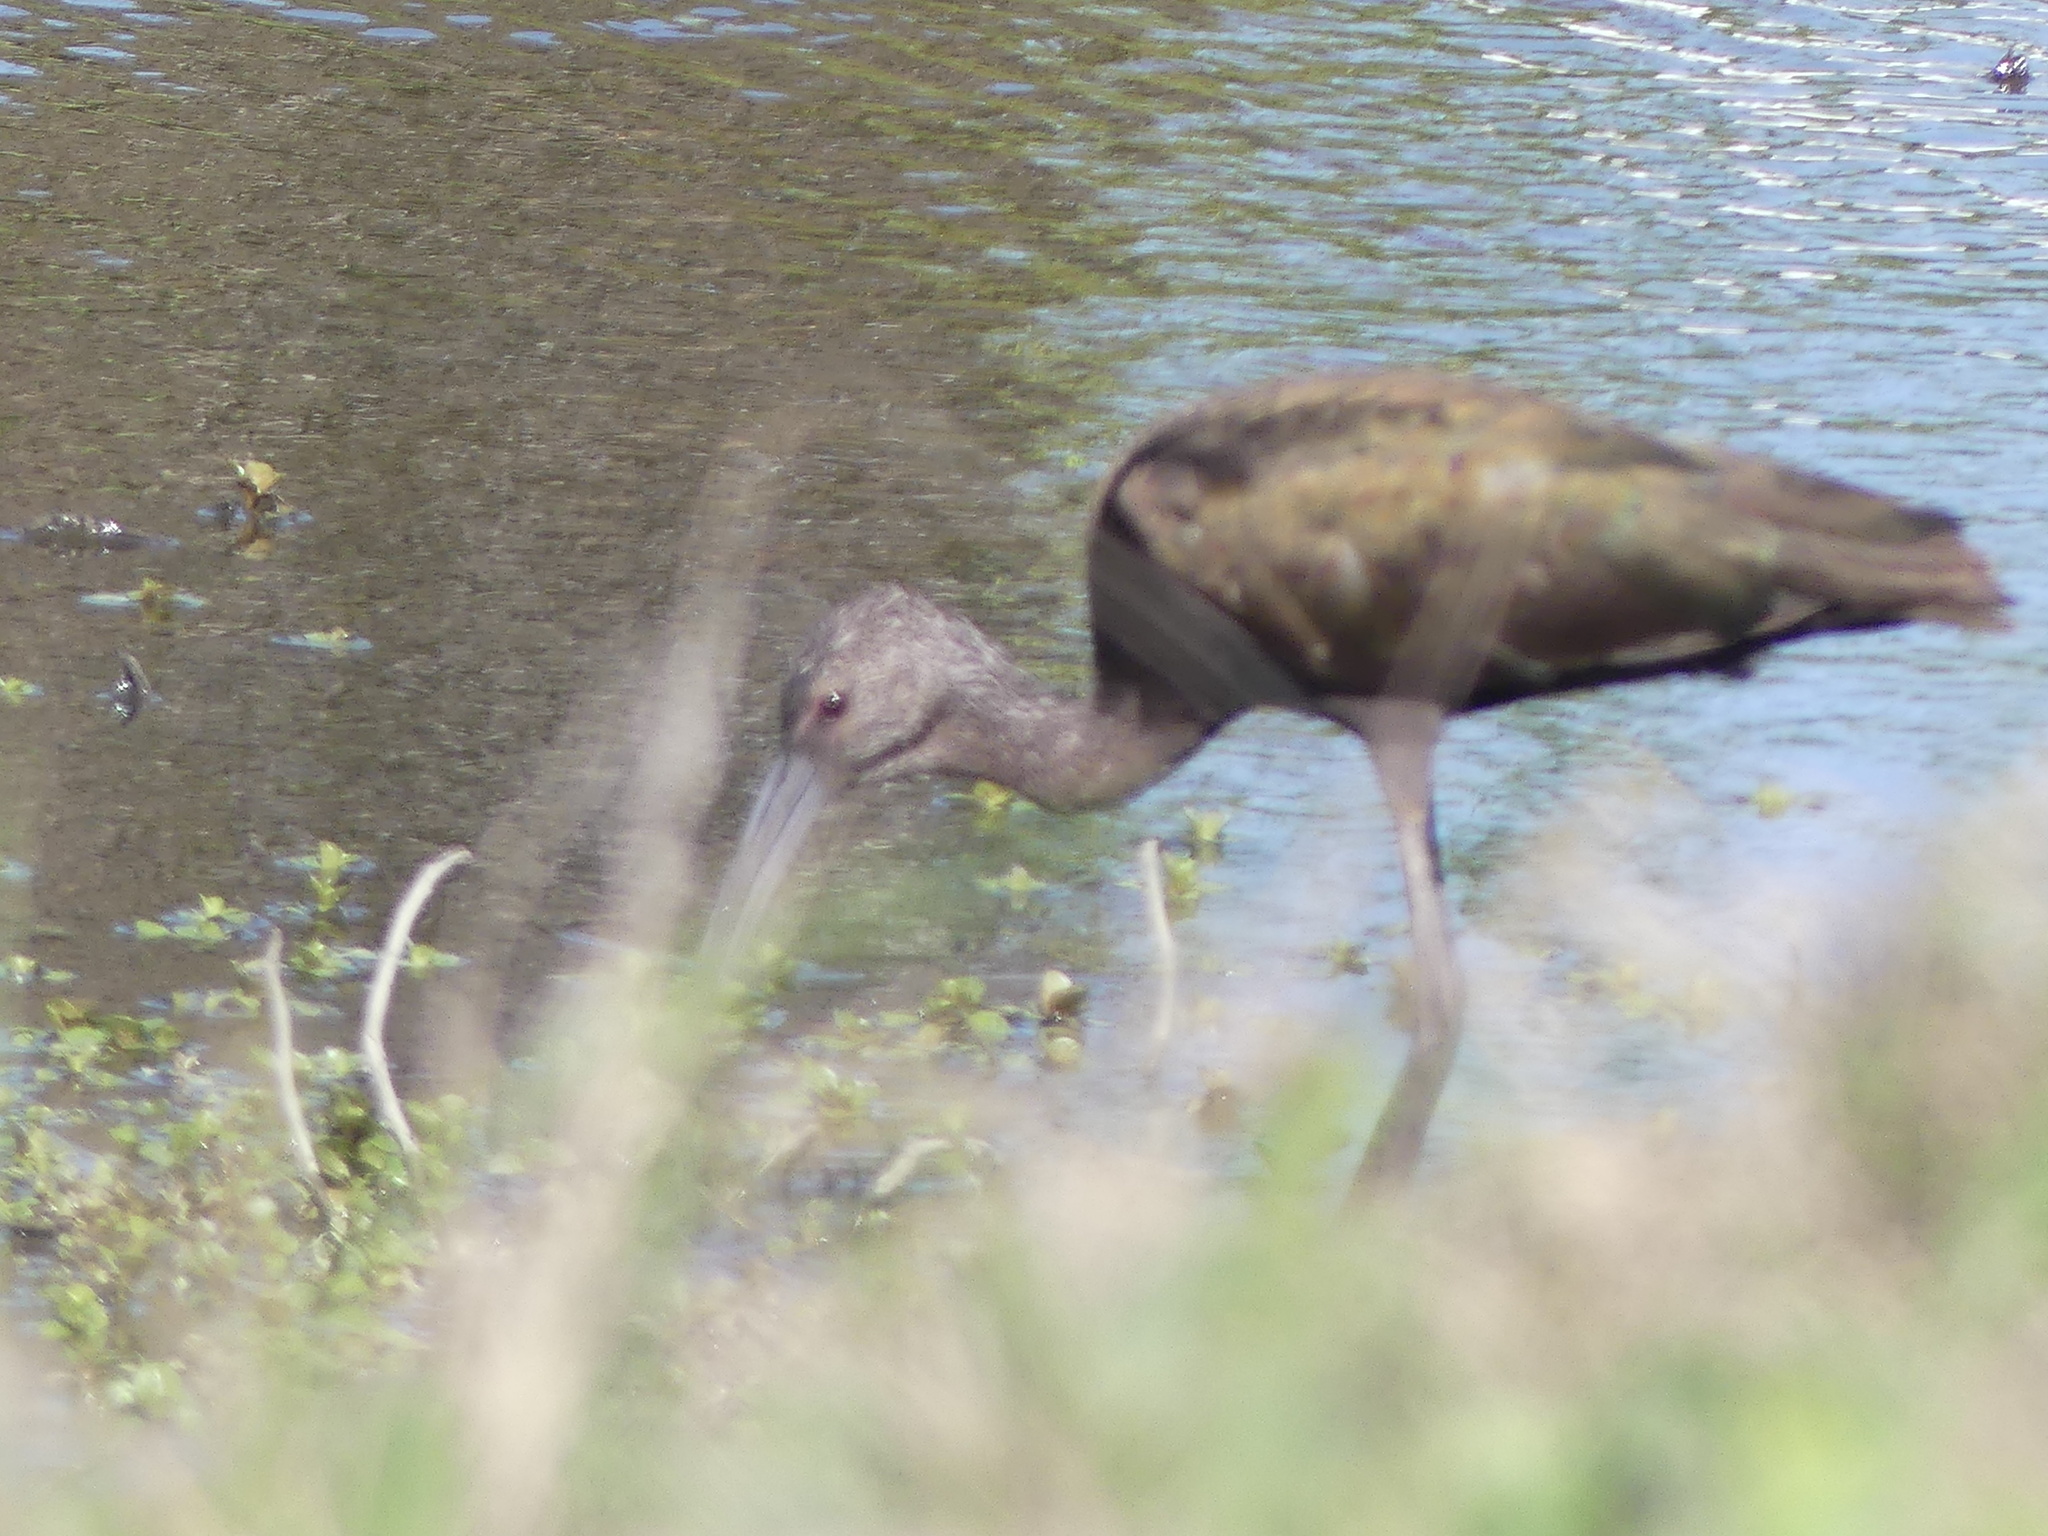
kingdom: Animalia
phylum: Chordata
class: Aves
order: Pelecaniformes
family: Threskiornithidae
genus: Plegadis
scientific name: Plegadis chihi
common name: White-faced ibis
